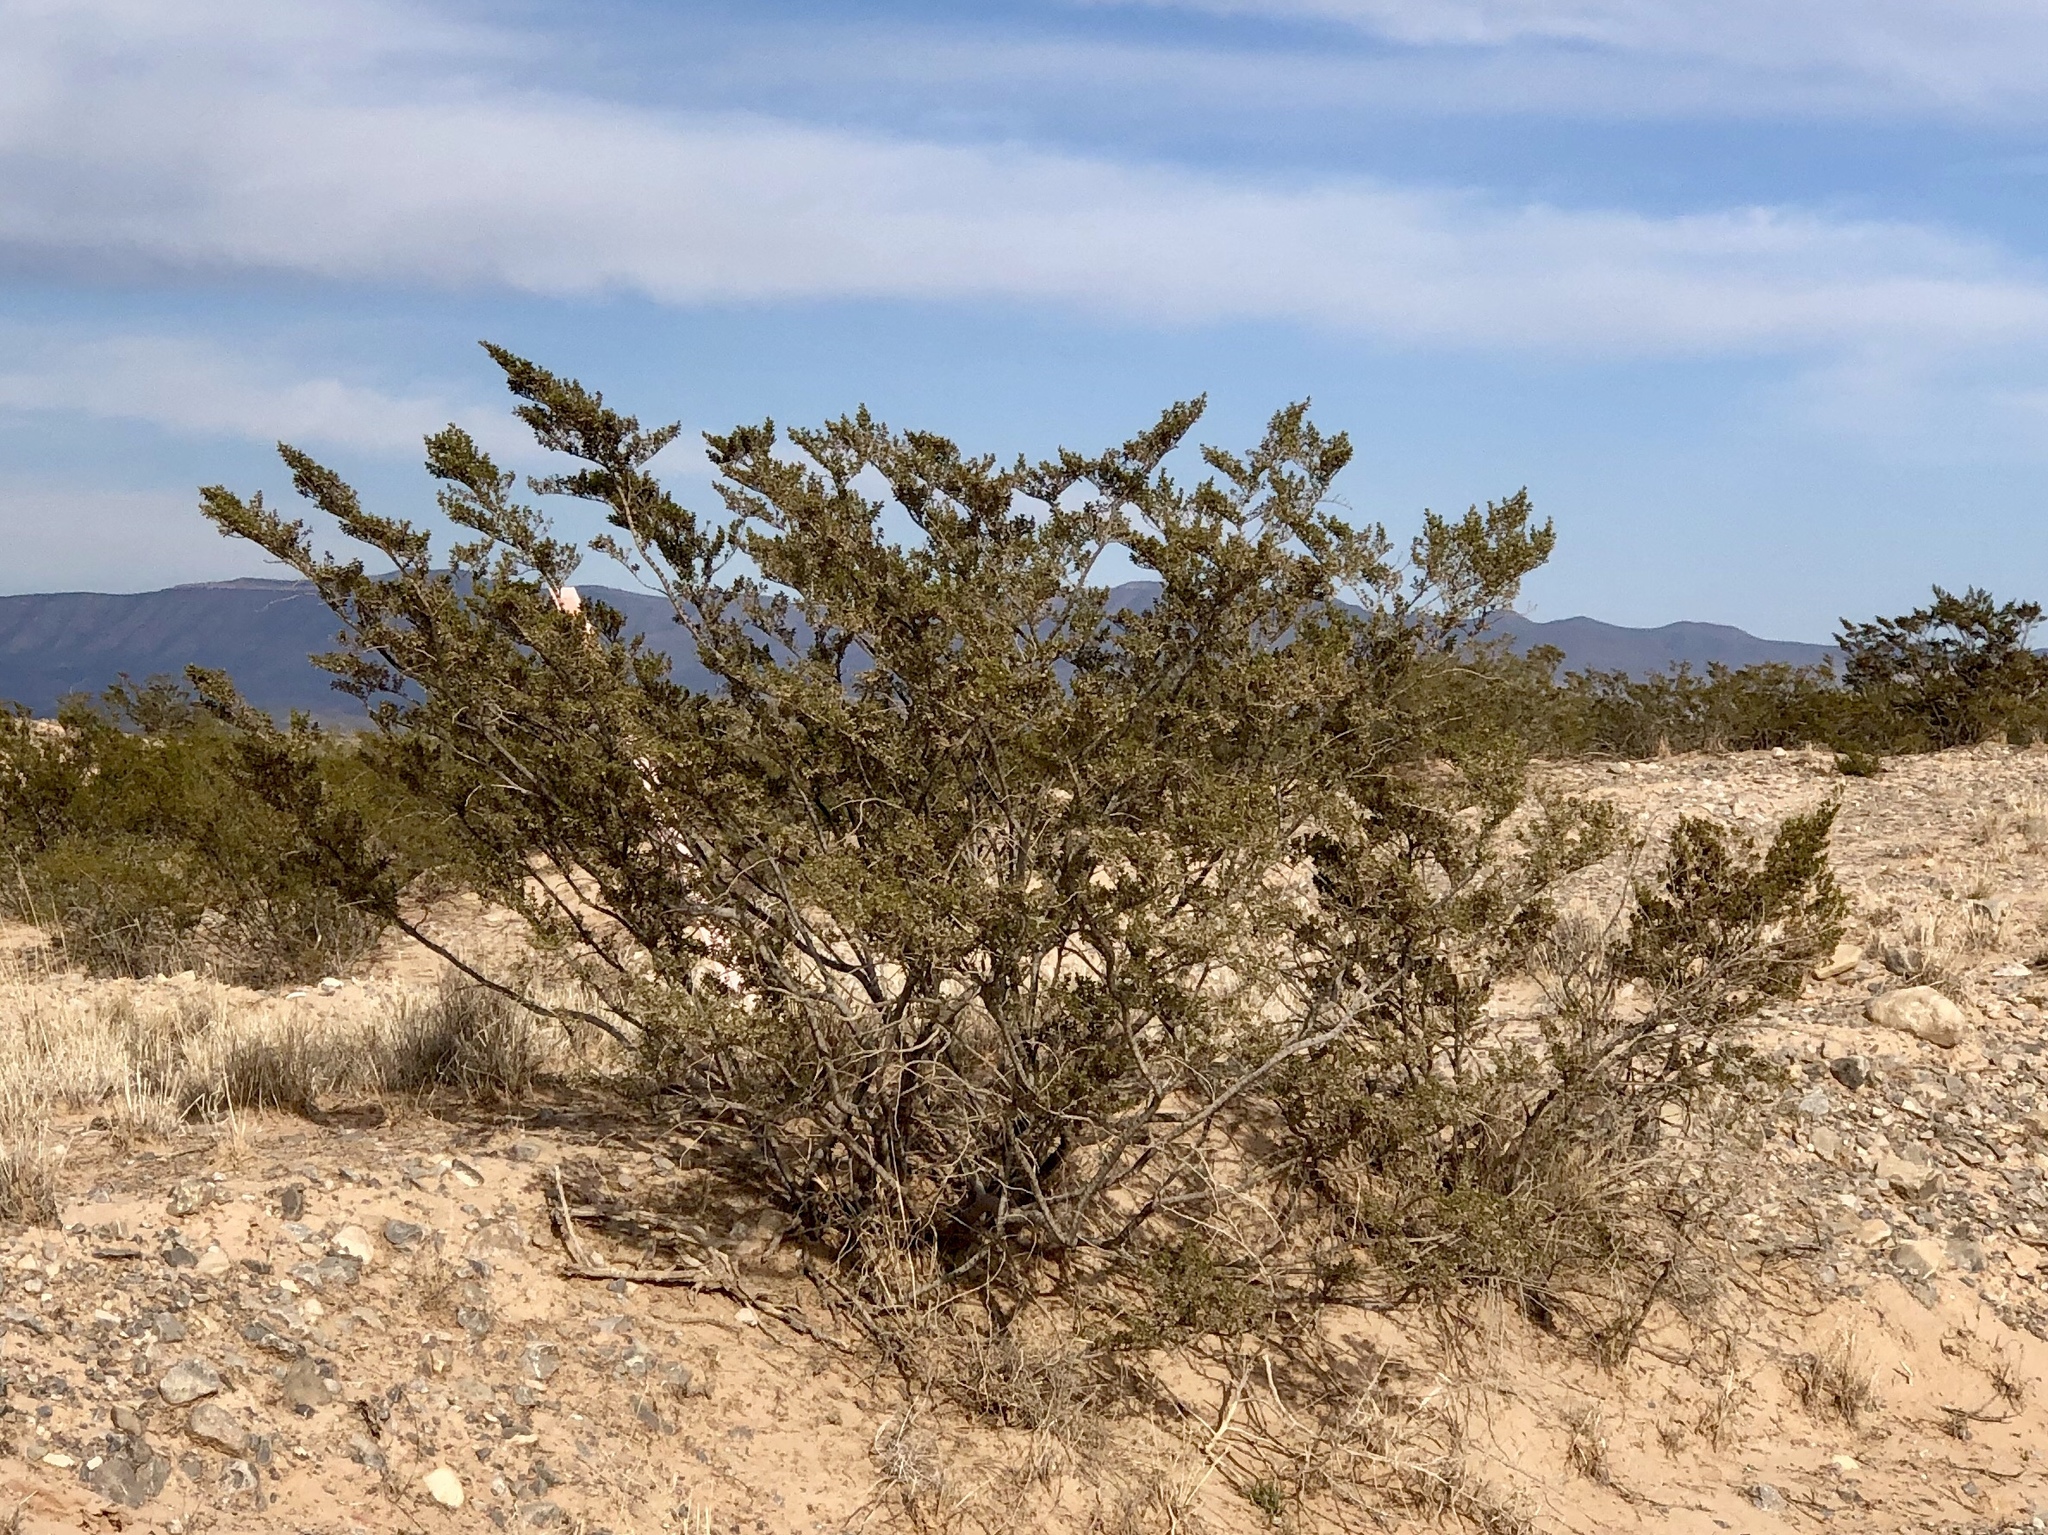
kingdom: Plantae
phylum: Tracheophyta
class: Magnoliopsida
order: Zygophyllales
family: Zygophyllaceae
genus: Larrea
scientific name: Larrea tridentata
